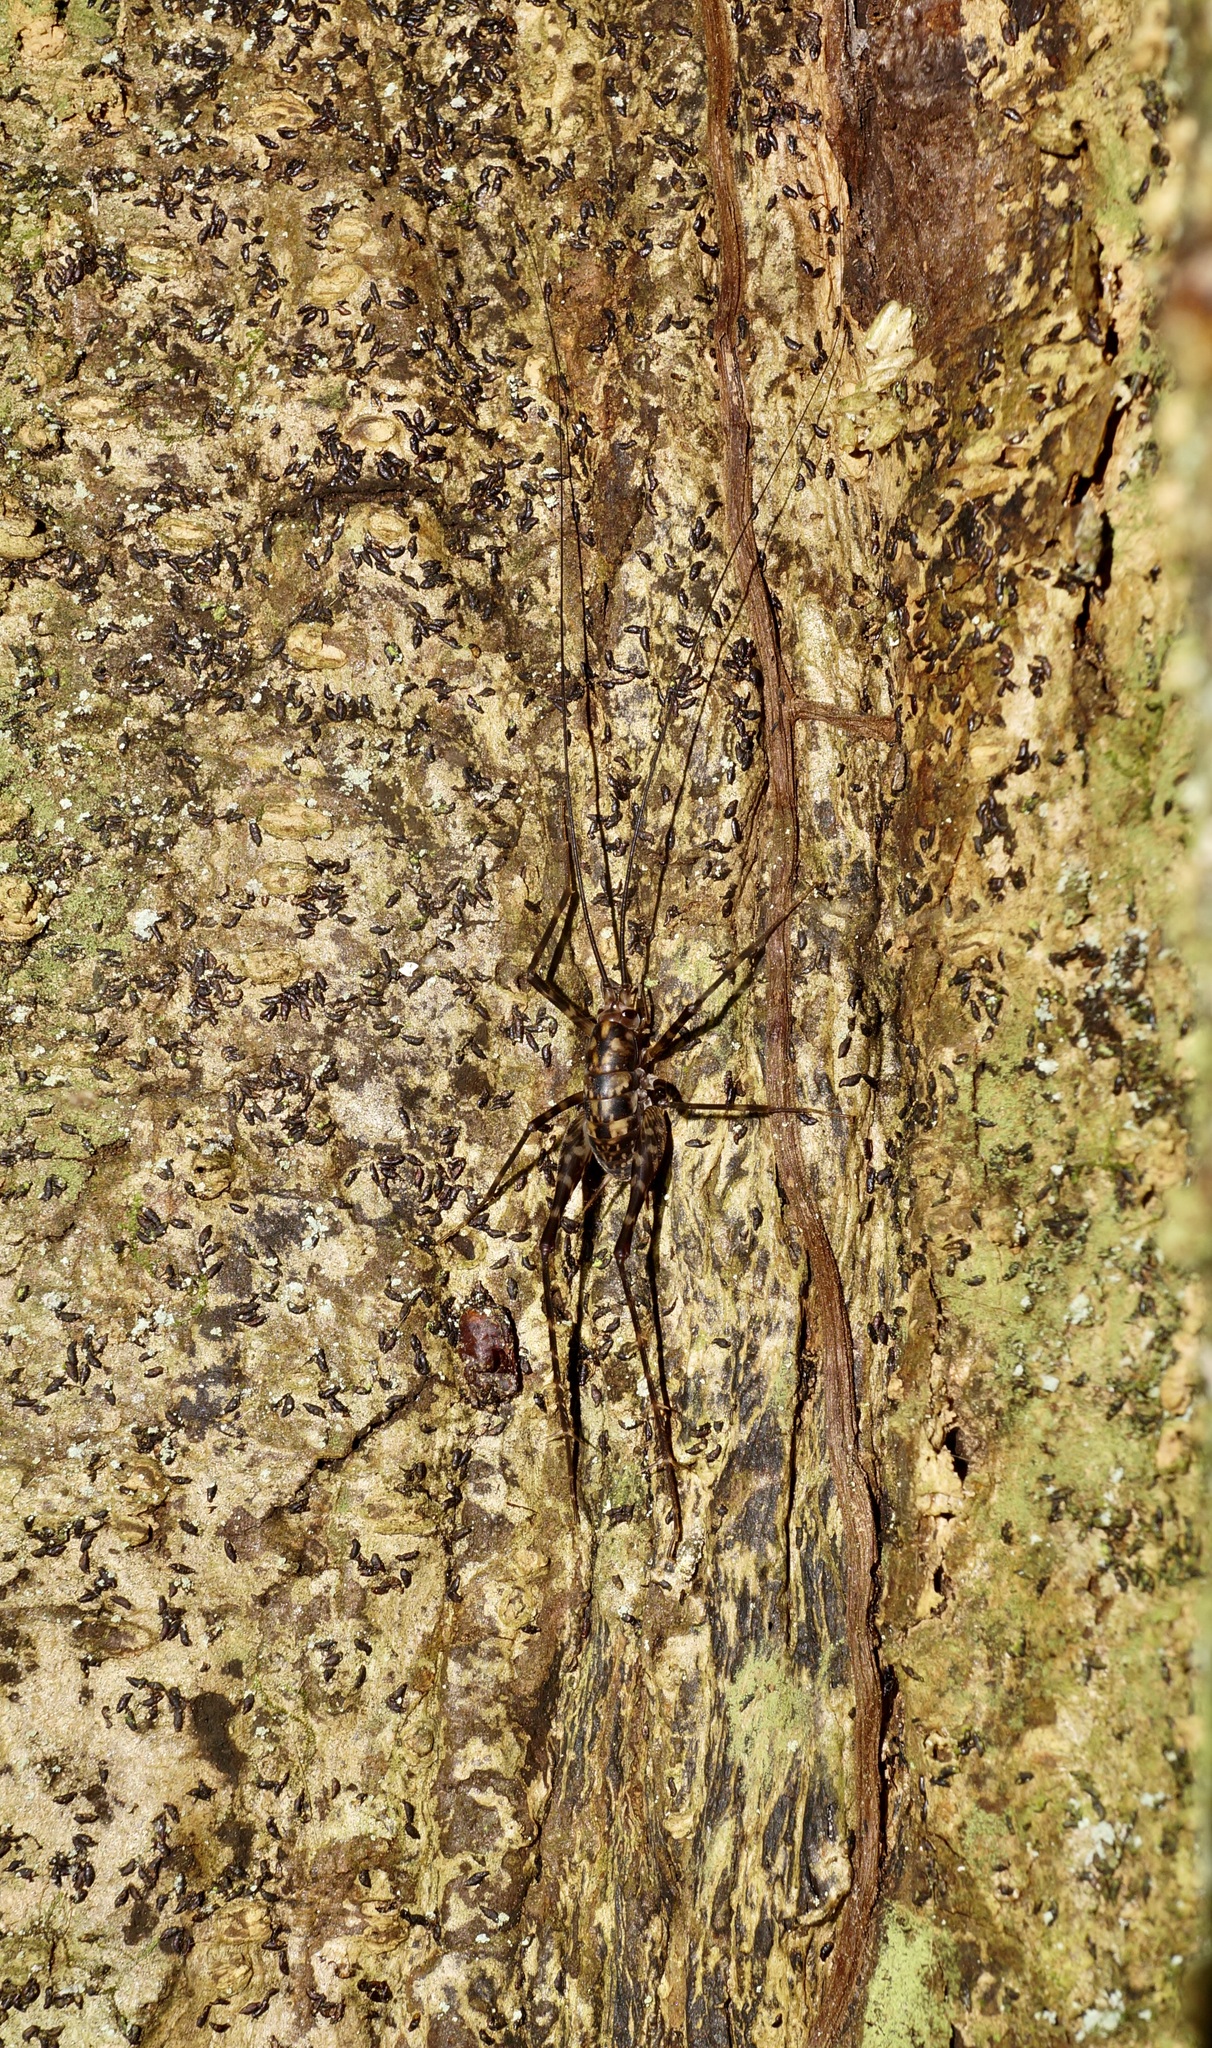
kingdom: Animalia
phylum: Arthropoda
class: Insecta
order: Orthoptera
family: Rhaphidophoridae
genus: Miotopus
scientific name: Miotopus richardsae
